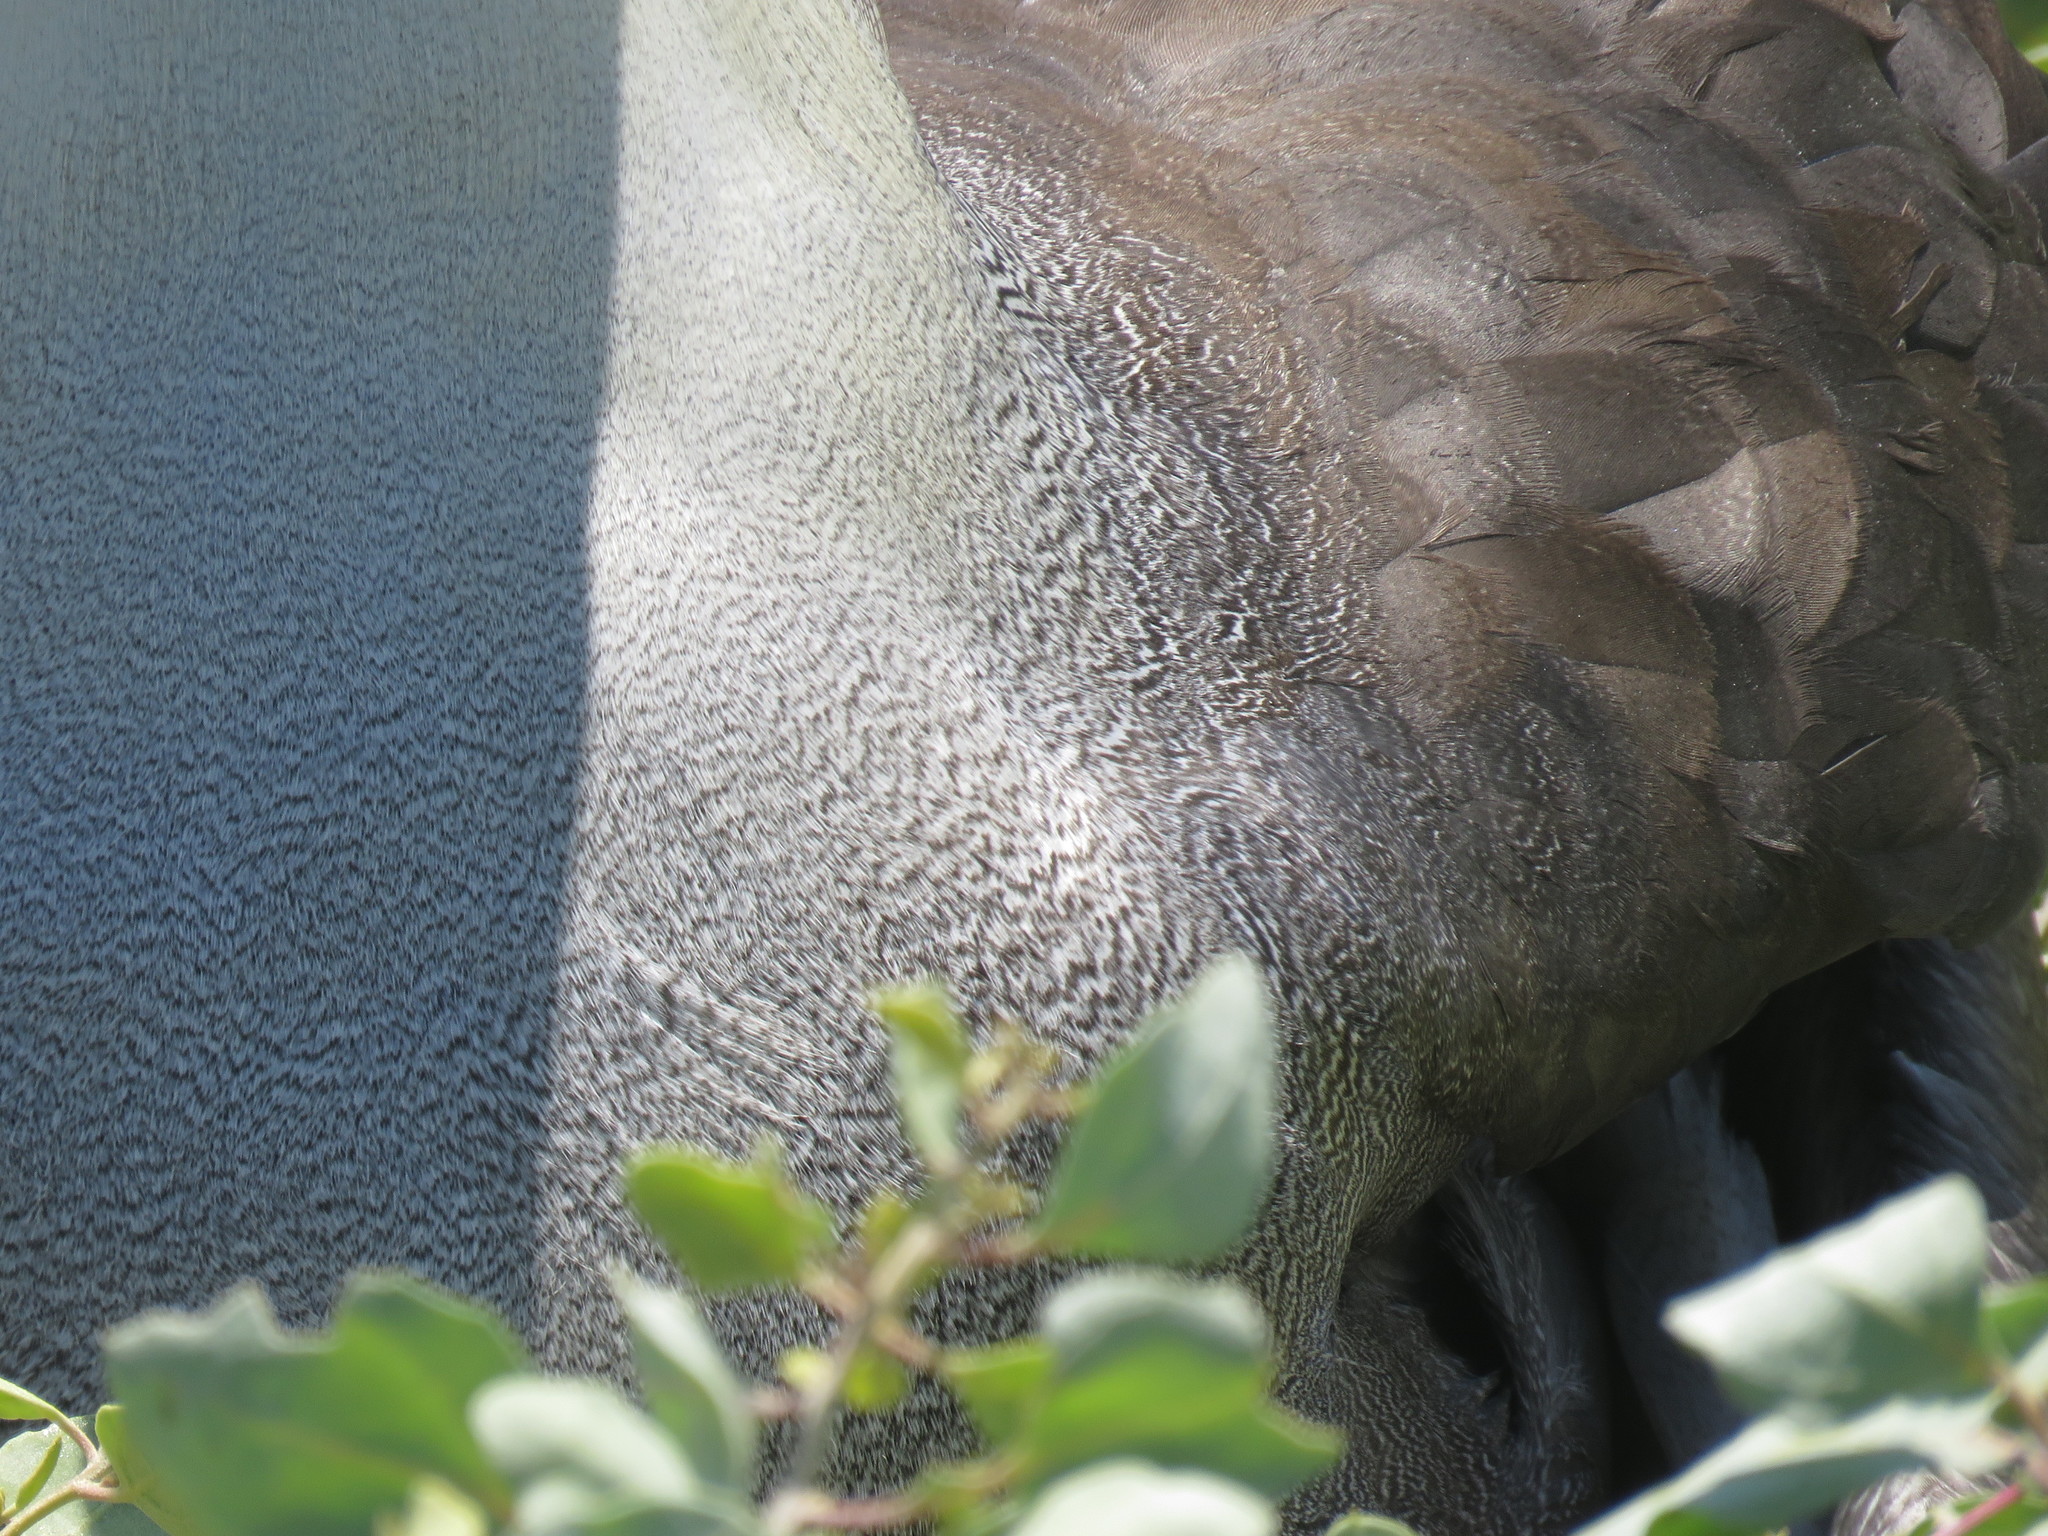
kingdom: Animalia
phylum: Chordata
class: Aves
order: Procellariiformes
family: Diomedeidae
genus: Phoebastria
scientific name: Phoebastria irrorata
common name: Waved albatross
